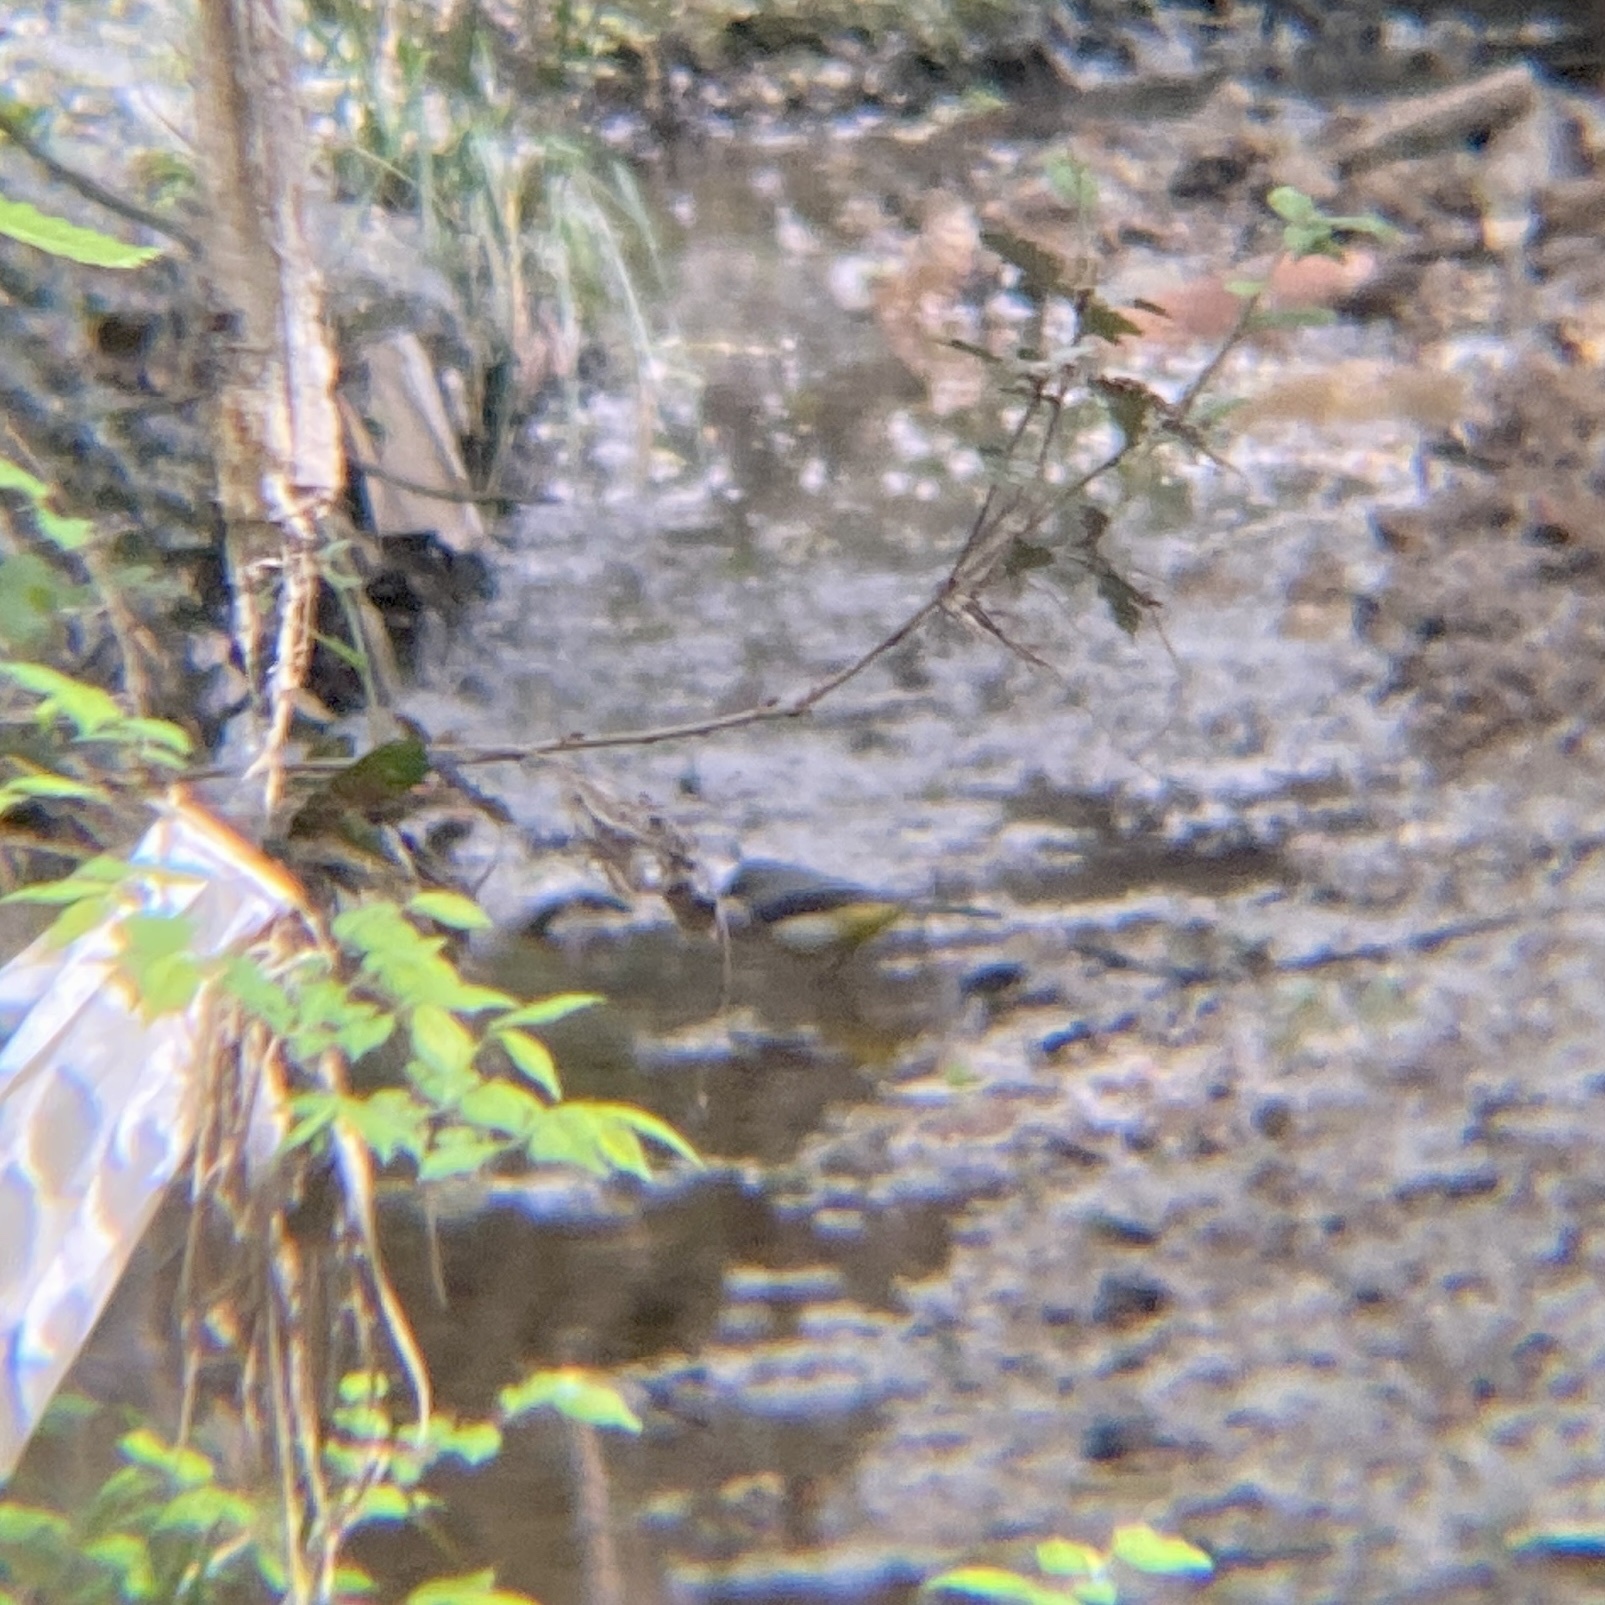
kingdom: Animalia
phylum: Chordata
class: Aves
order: Passeriformes
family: Motacillidae
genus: Motacilla
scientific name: Motacilla cinerea
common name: Grey wagtail
